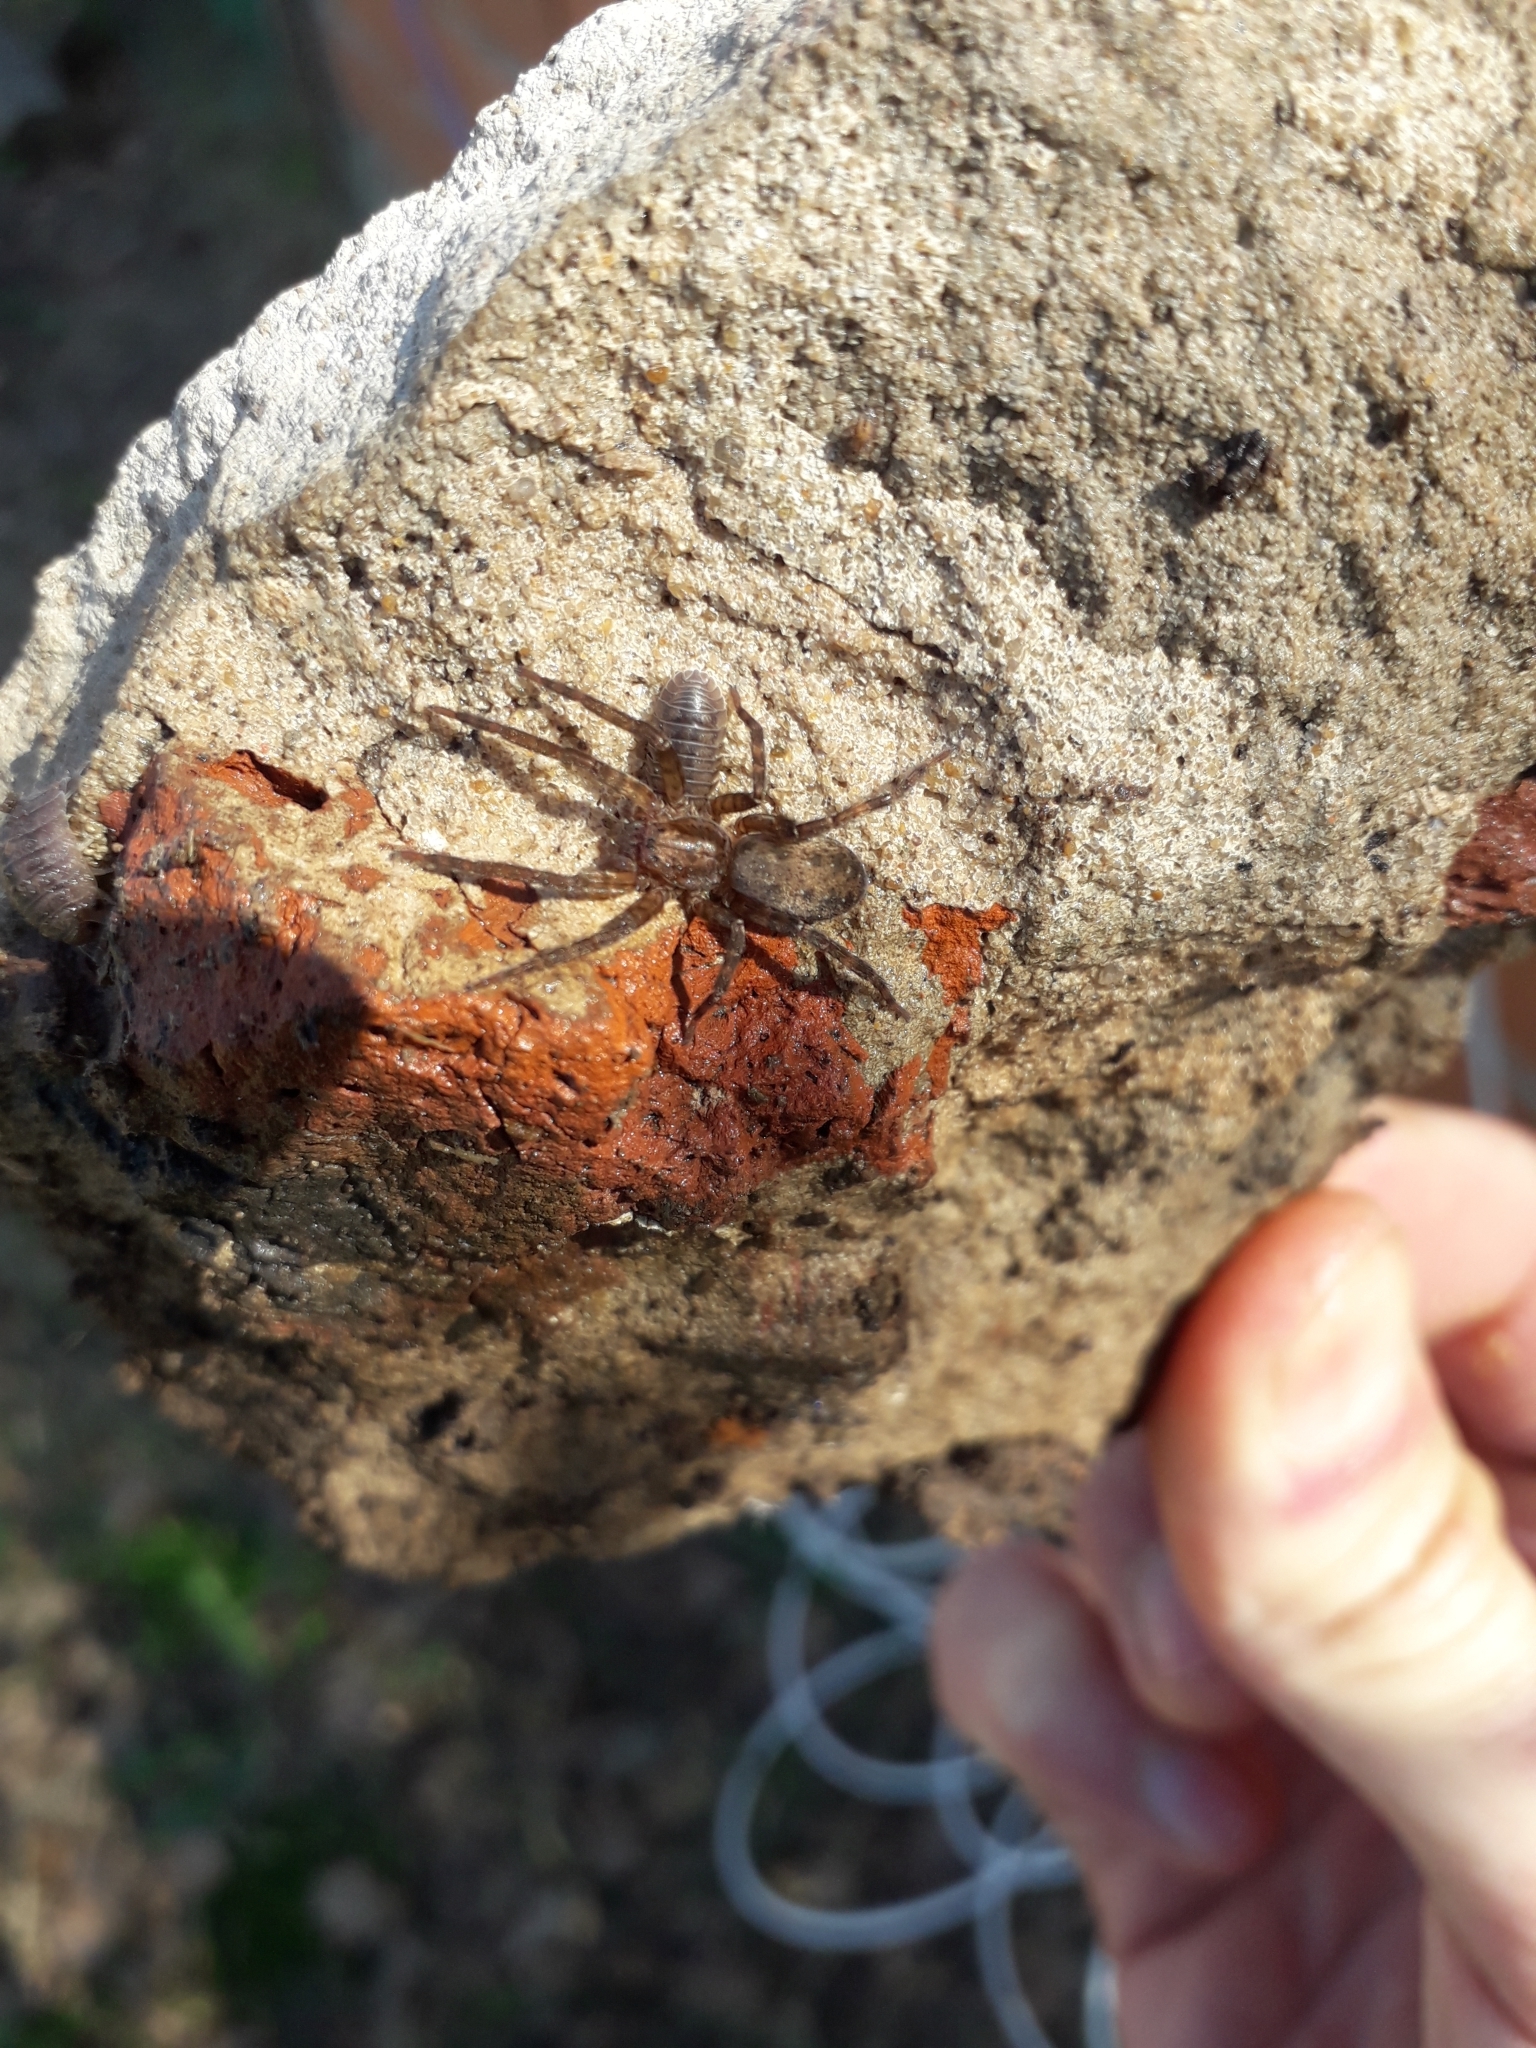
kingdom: Animalia
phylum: Arthropoda
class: Arachnida
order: Araneae
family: Ctenidae
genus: Asthenoctenus
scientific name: Asthenoctenus borellii
